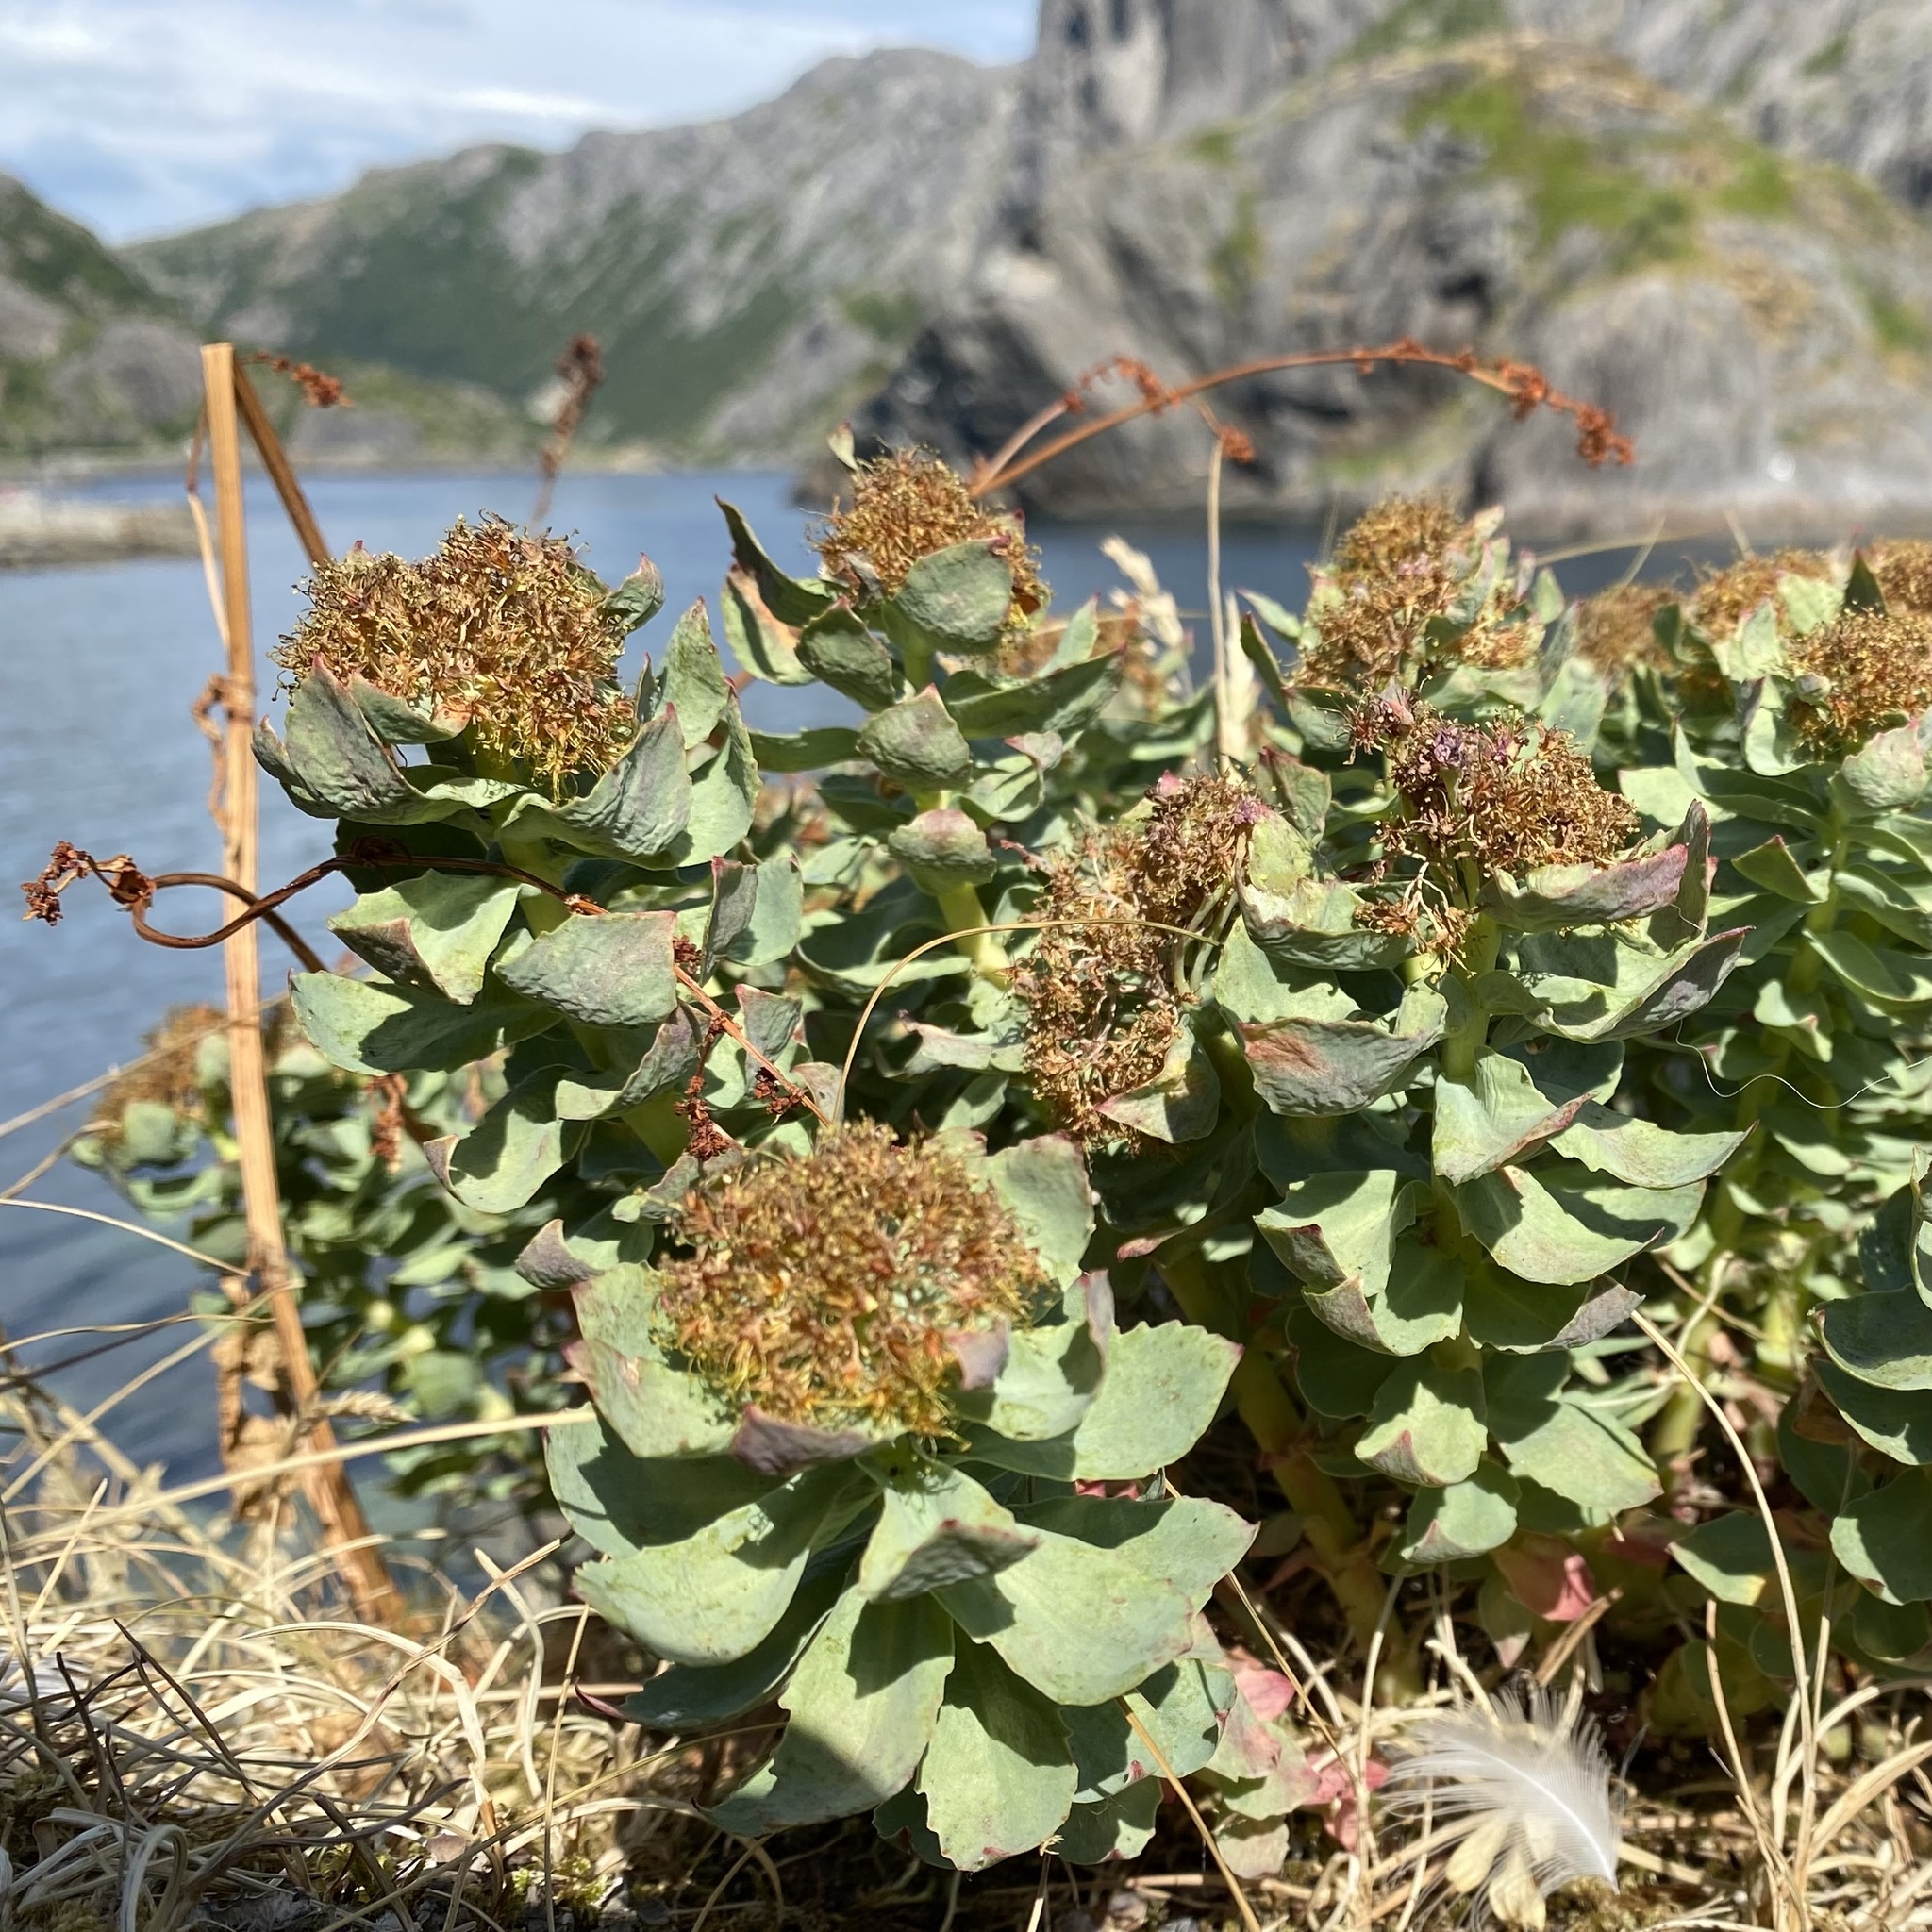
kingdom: Plantae
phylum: Tracheophyta
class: Magnoliopsida
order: Saxifragales
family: Crassulaceae
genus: Rhodiola
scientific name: Rhodiola rosea
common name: Roseroot
